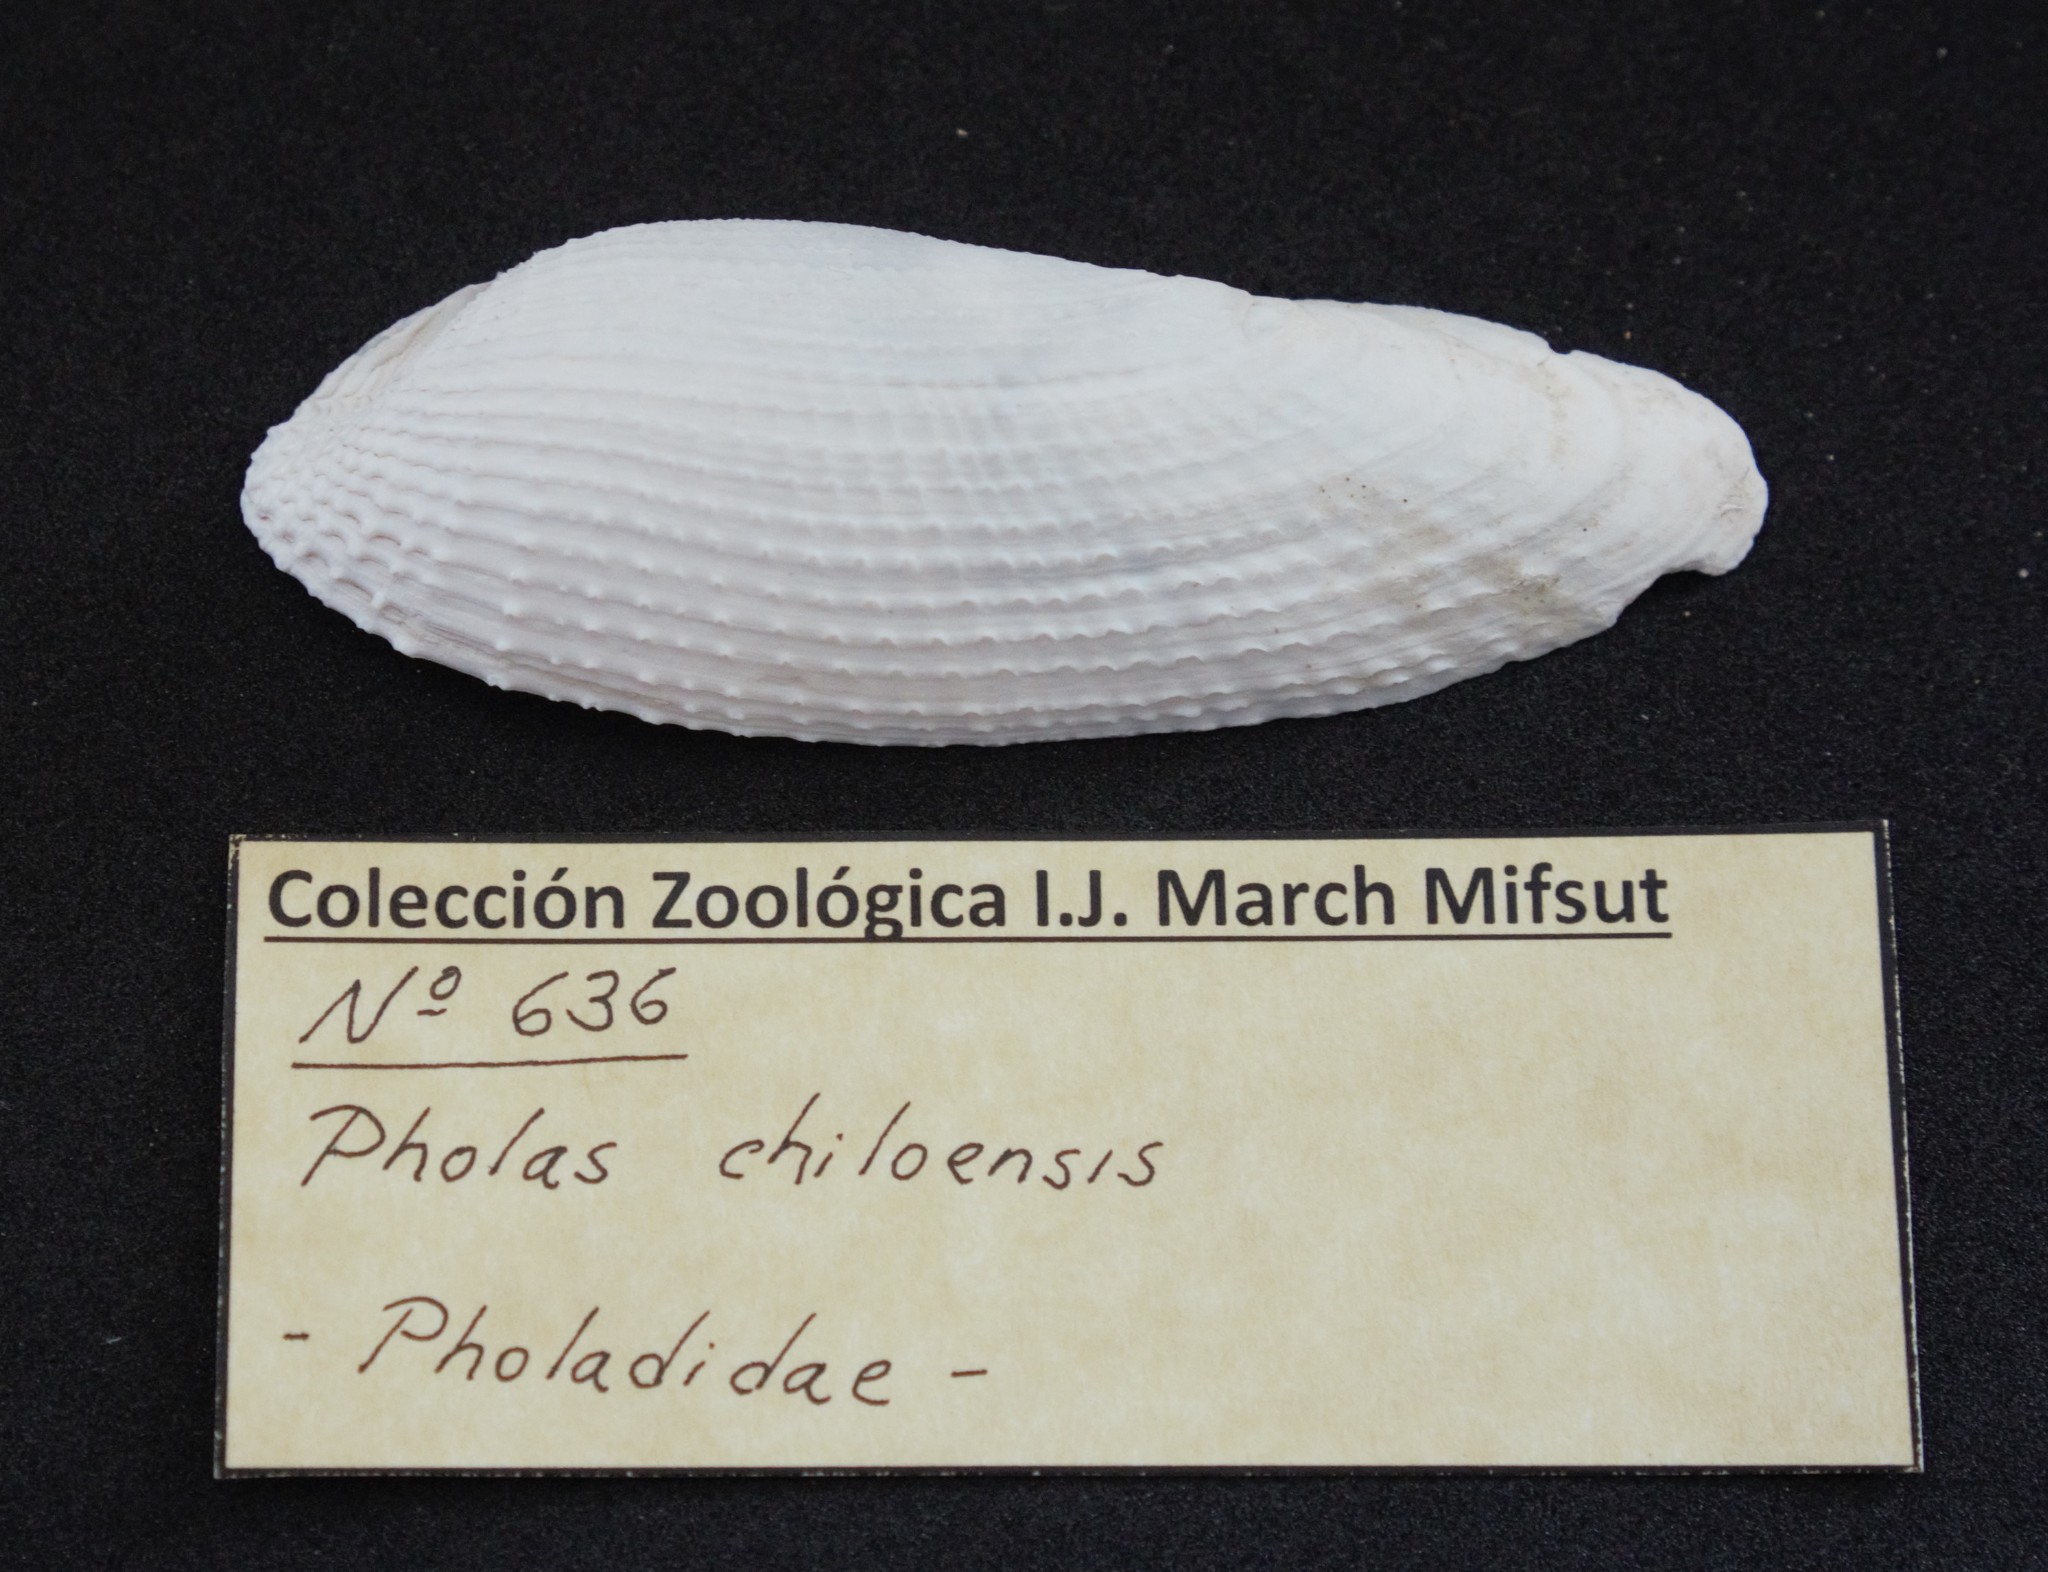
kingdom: Animalia
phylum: Mollusca
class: Bivalvia
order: Myida
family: Pholadidae
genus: Pholas
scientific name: Pholas chiloensis
